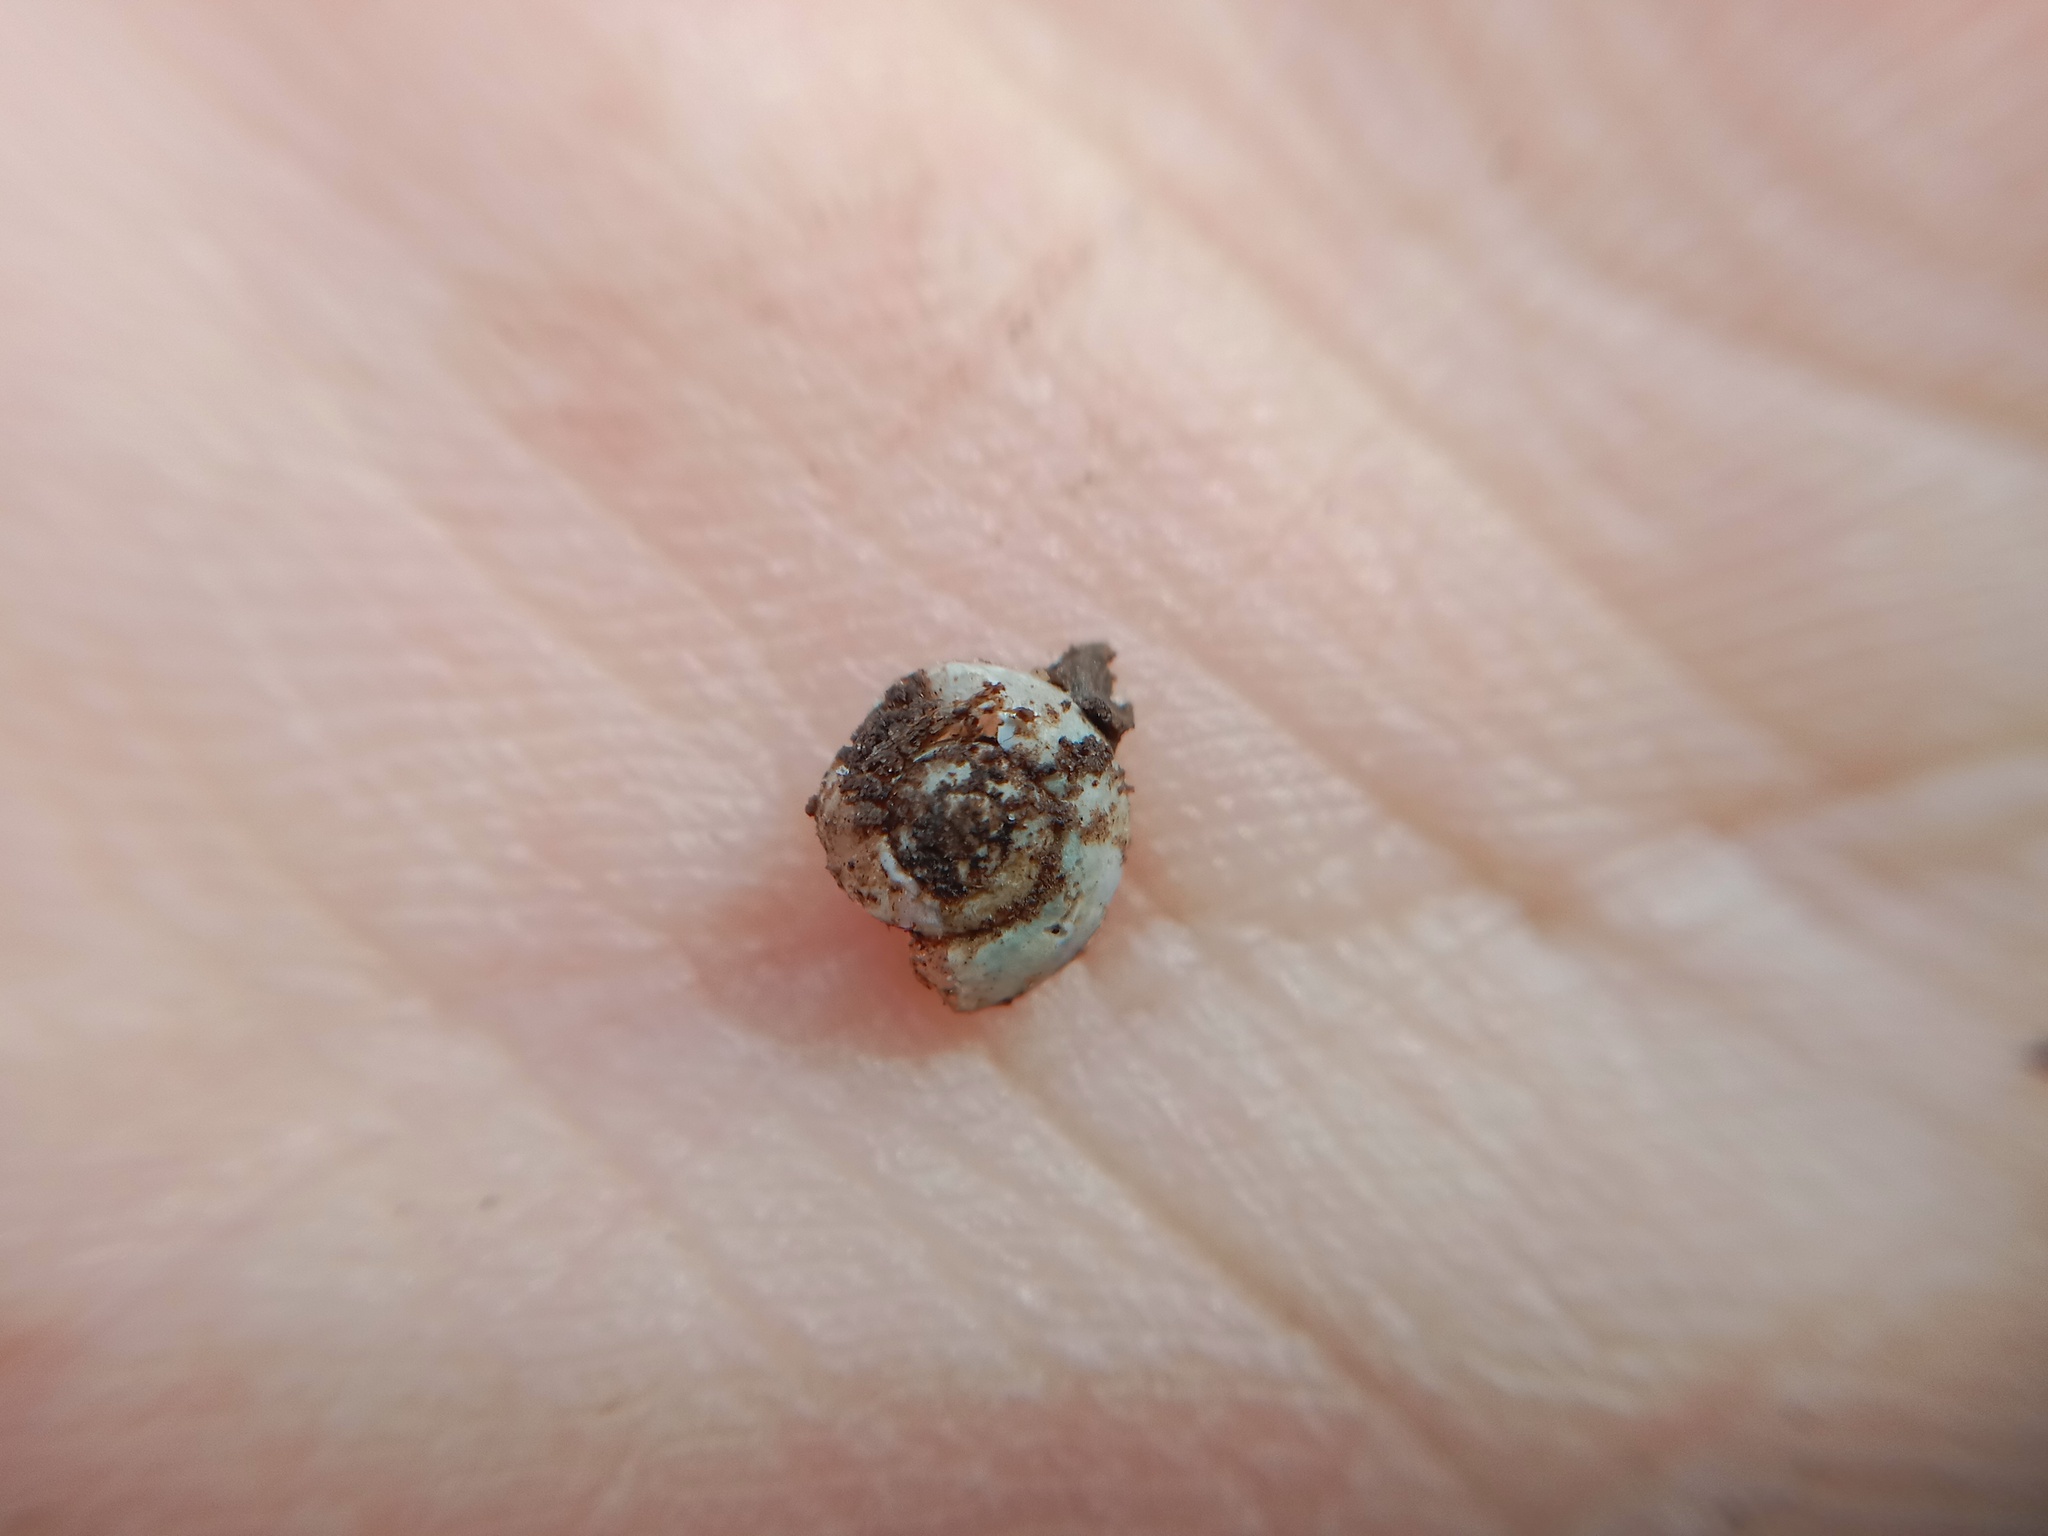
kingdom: Animalia
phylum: Mollusca
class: Gastropoda
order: Stylommatophora
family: Gastrodontidae
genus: Aegopinella
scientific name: Aegopinella minor
